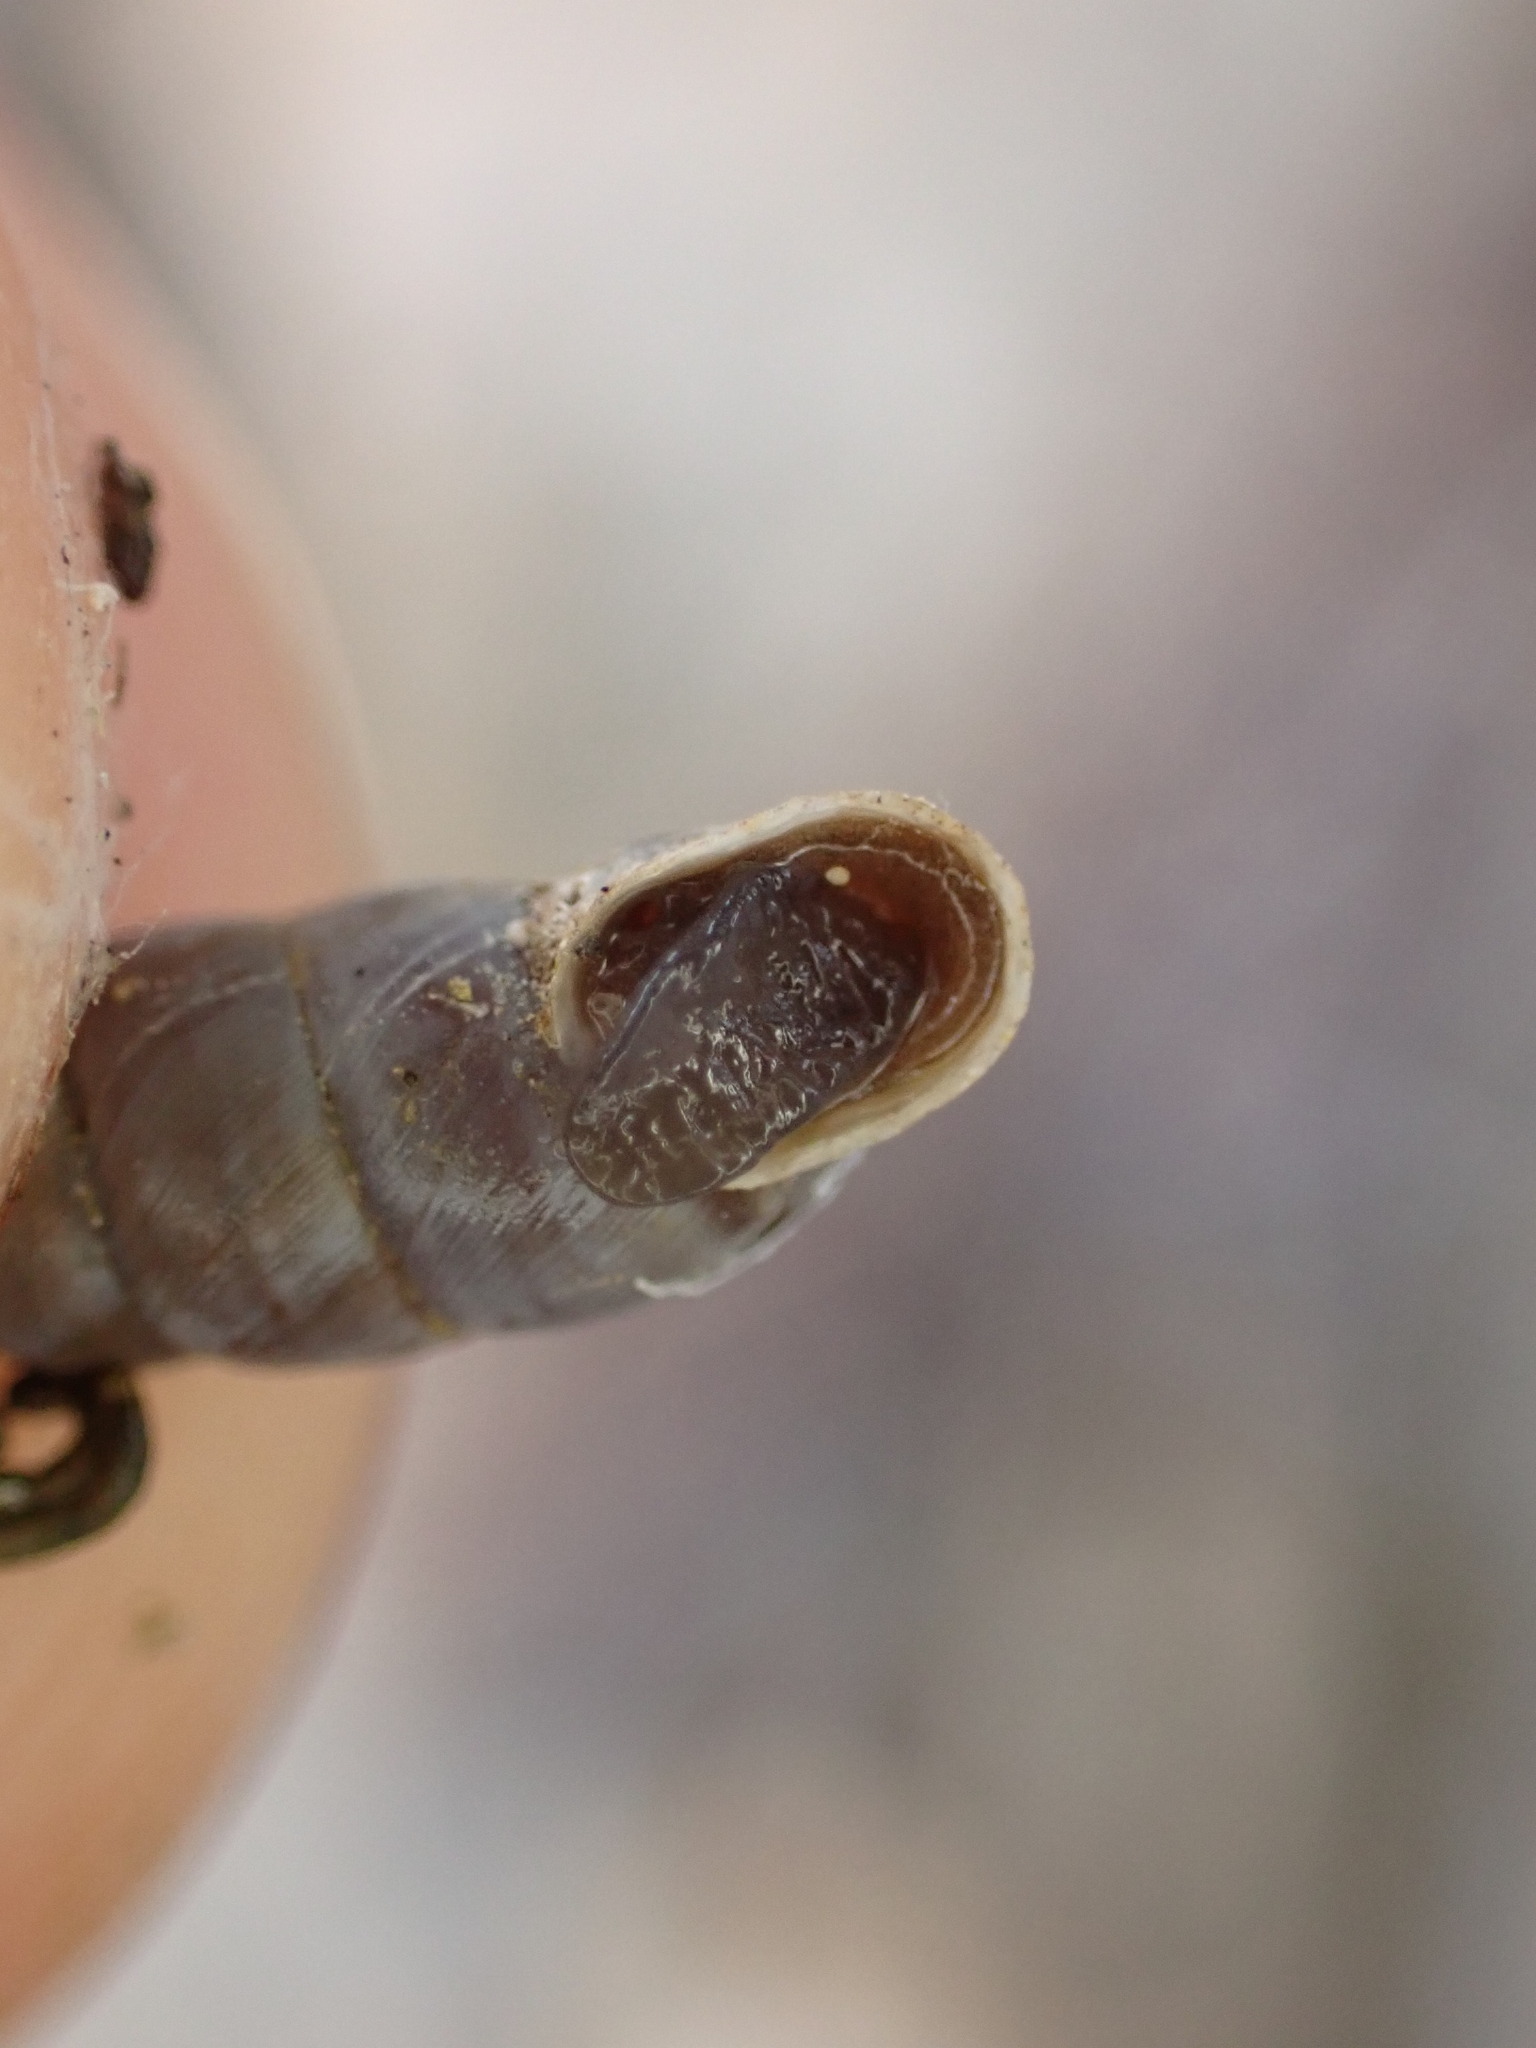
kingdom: Animalia
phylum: Mollusca
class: Gastropoda
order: Stylommatophora
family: Chondrinidae
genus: Solatopupa
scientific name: Solatopupa similis
